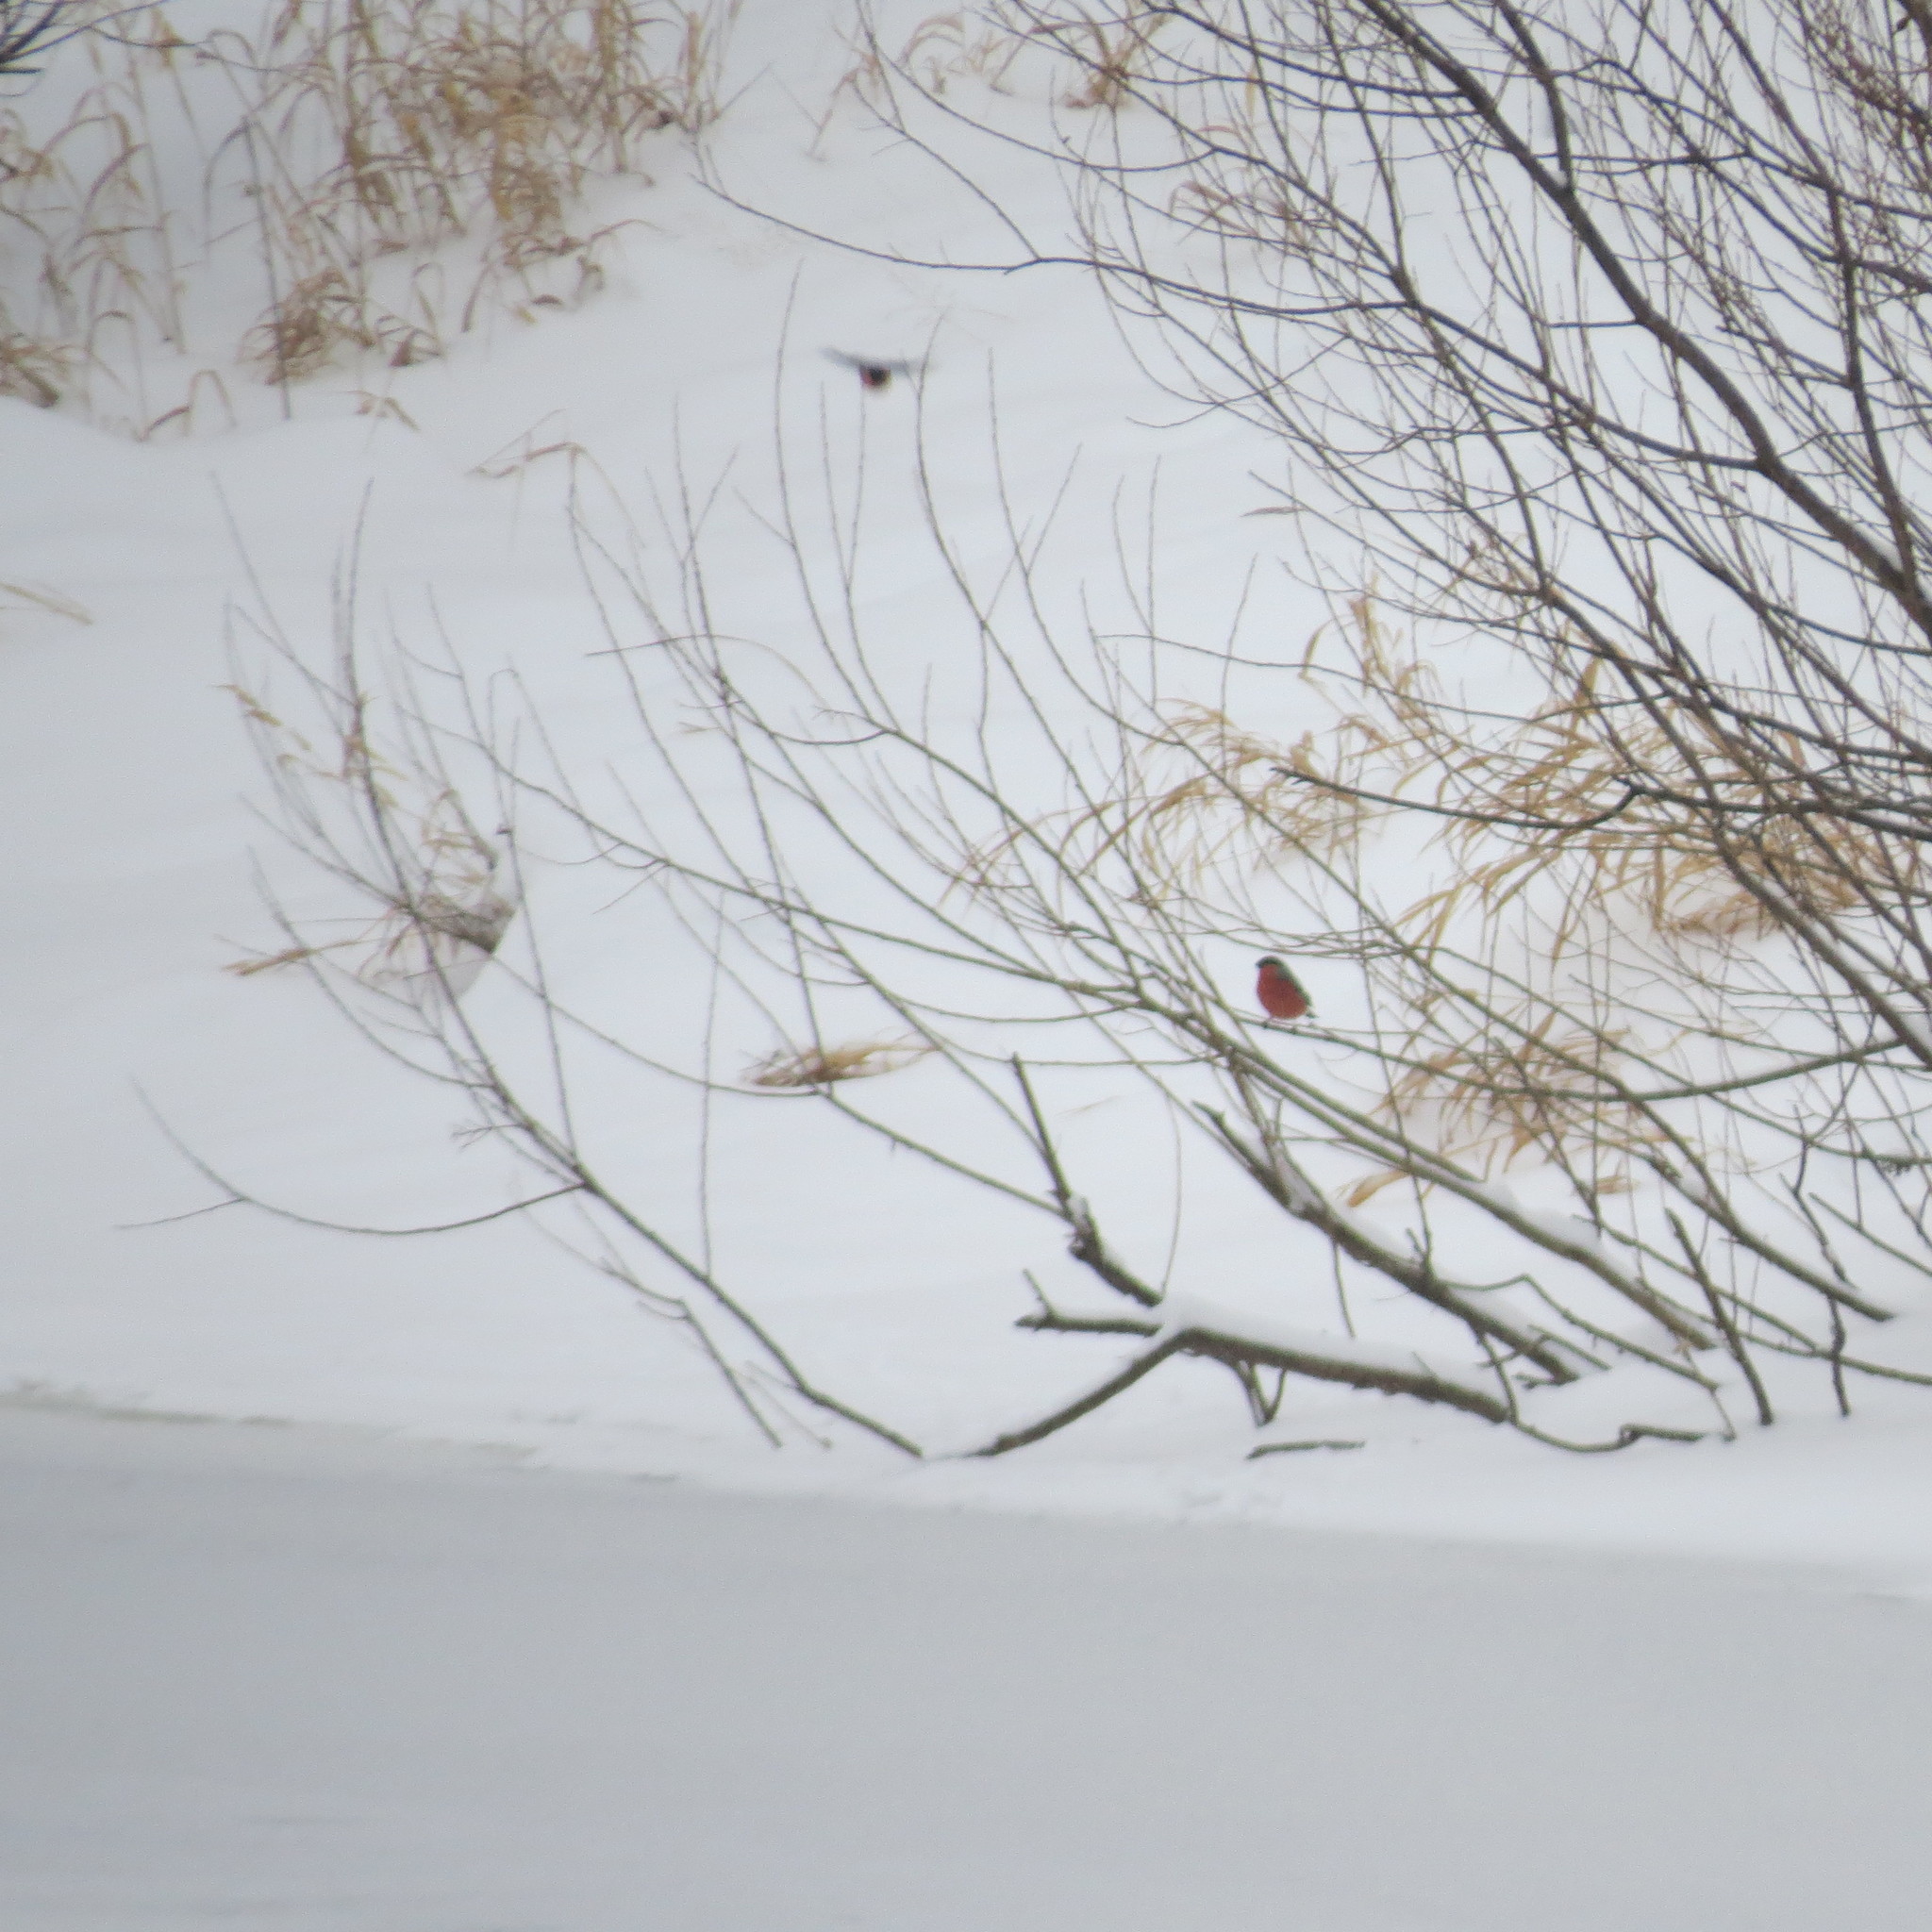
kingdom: Animalia
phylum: Chordata
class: Aves
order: Passeriformes
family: Fringillidae
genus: Pyrrhula
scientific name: Pyrrhula pyrrhula
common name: Eurasian bullfinch
